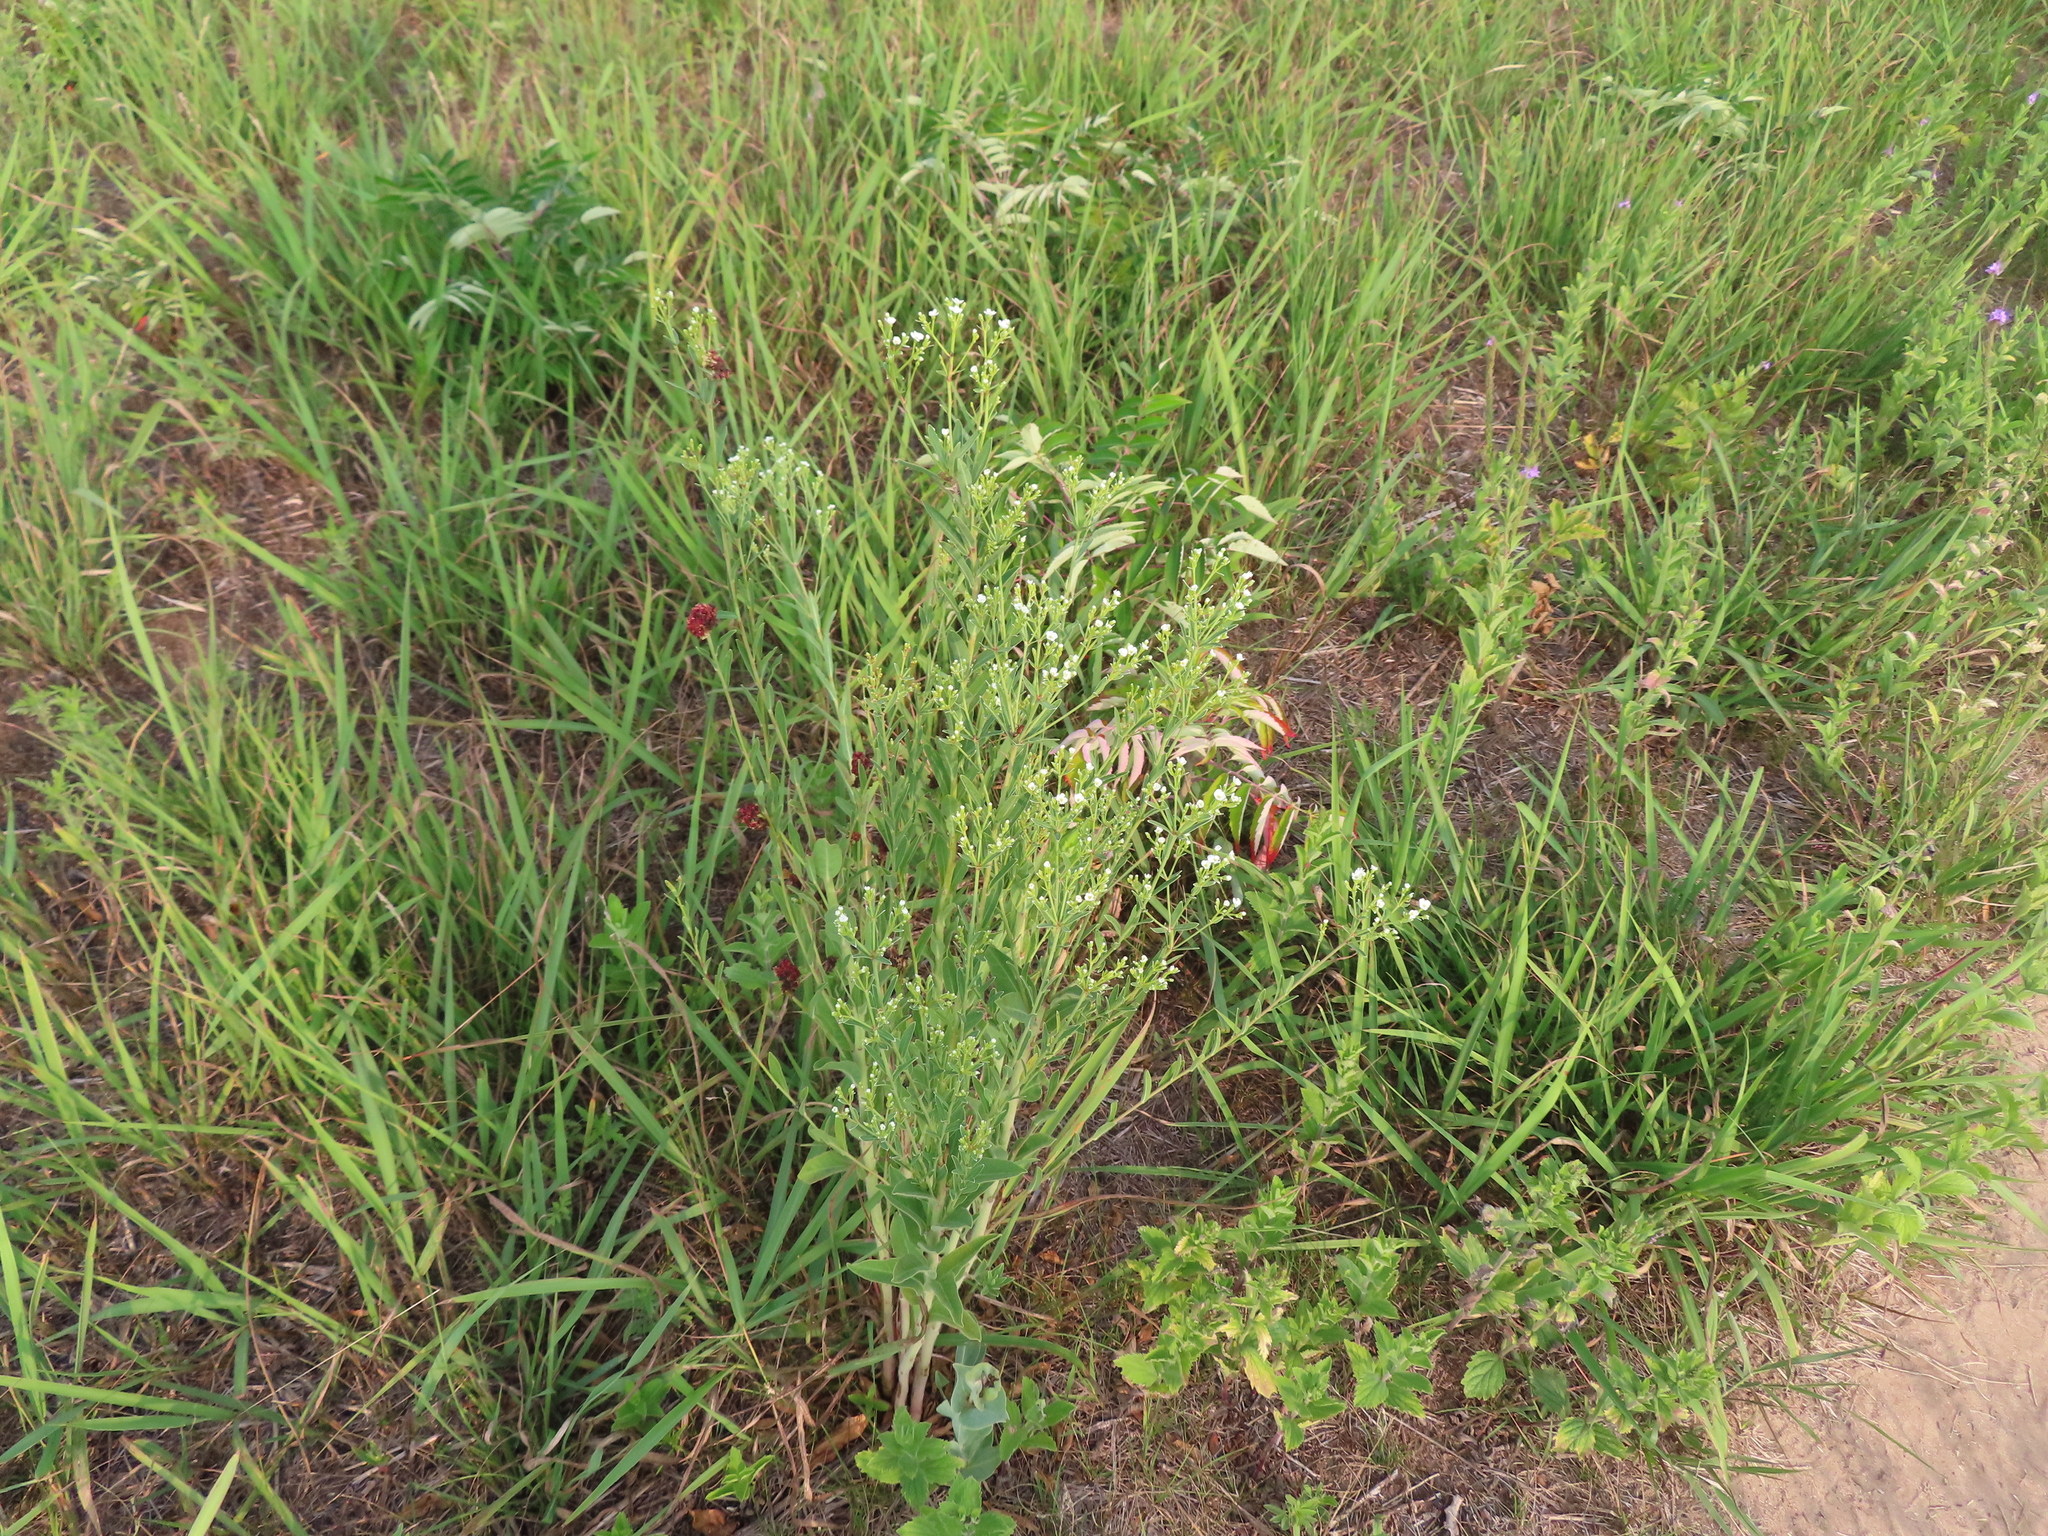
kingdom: Plantae
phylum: Tracheophyta
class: Magnoliopsida
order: Malpighiales
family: Euphorbiaceae
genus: Euphorbia
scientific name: Euphorbia corollata
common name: Flowering spurge
